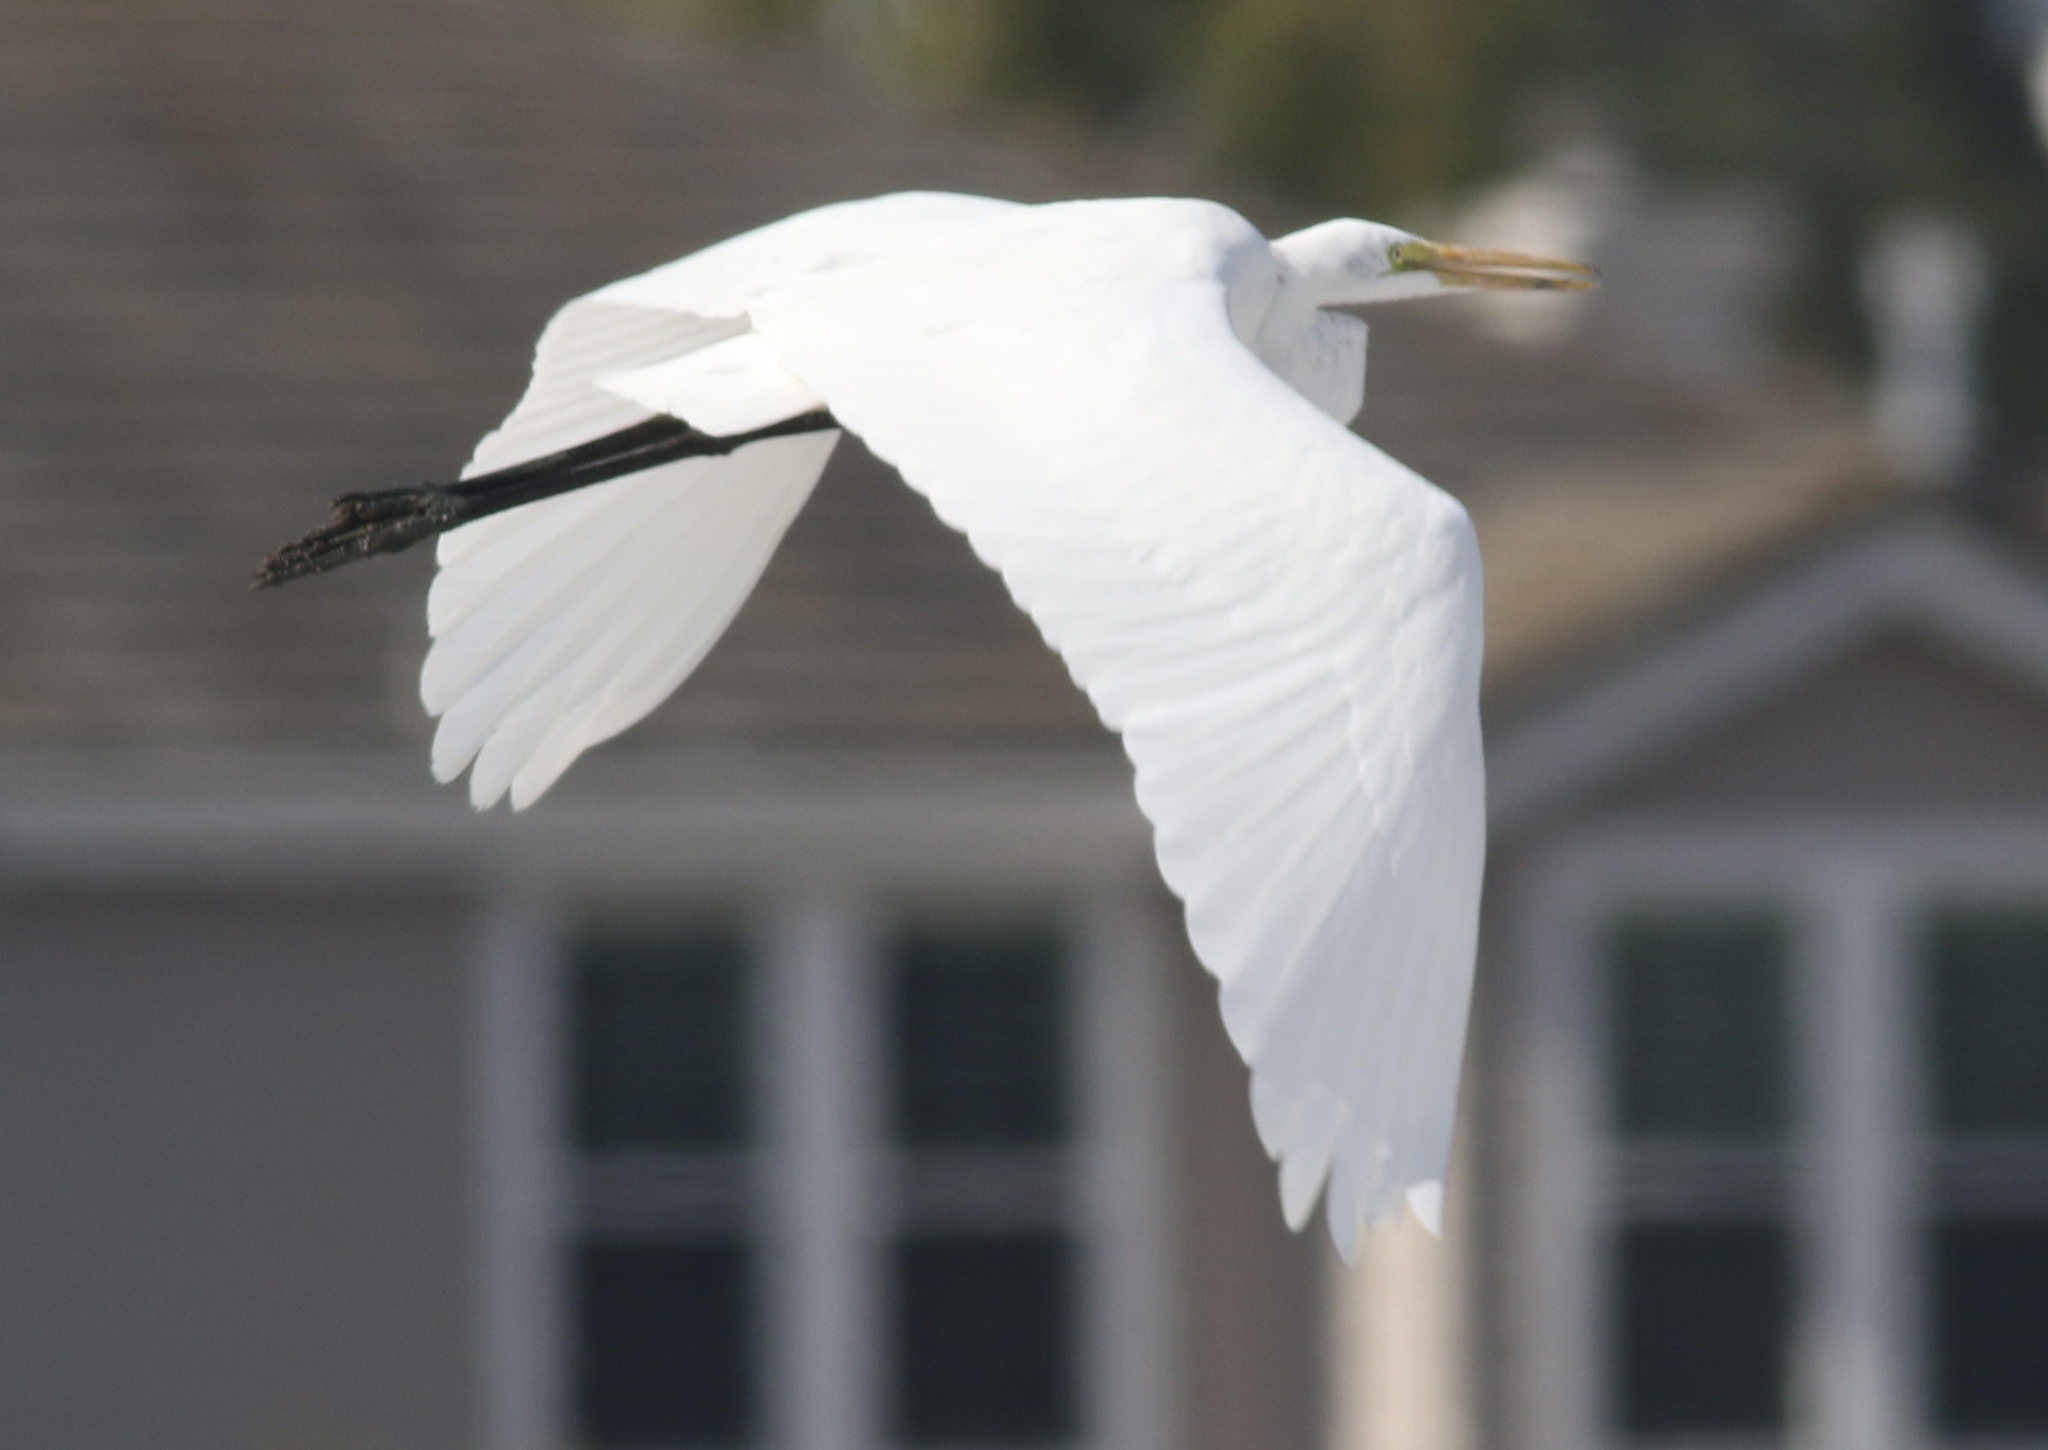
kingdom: Animalia
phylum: Chordata
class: Aves
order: Pelecaniformes
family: Ardeidae
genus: Ardea
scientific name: Ardea alba
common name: Great egret
